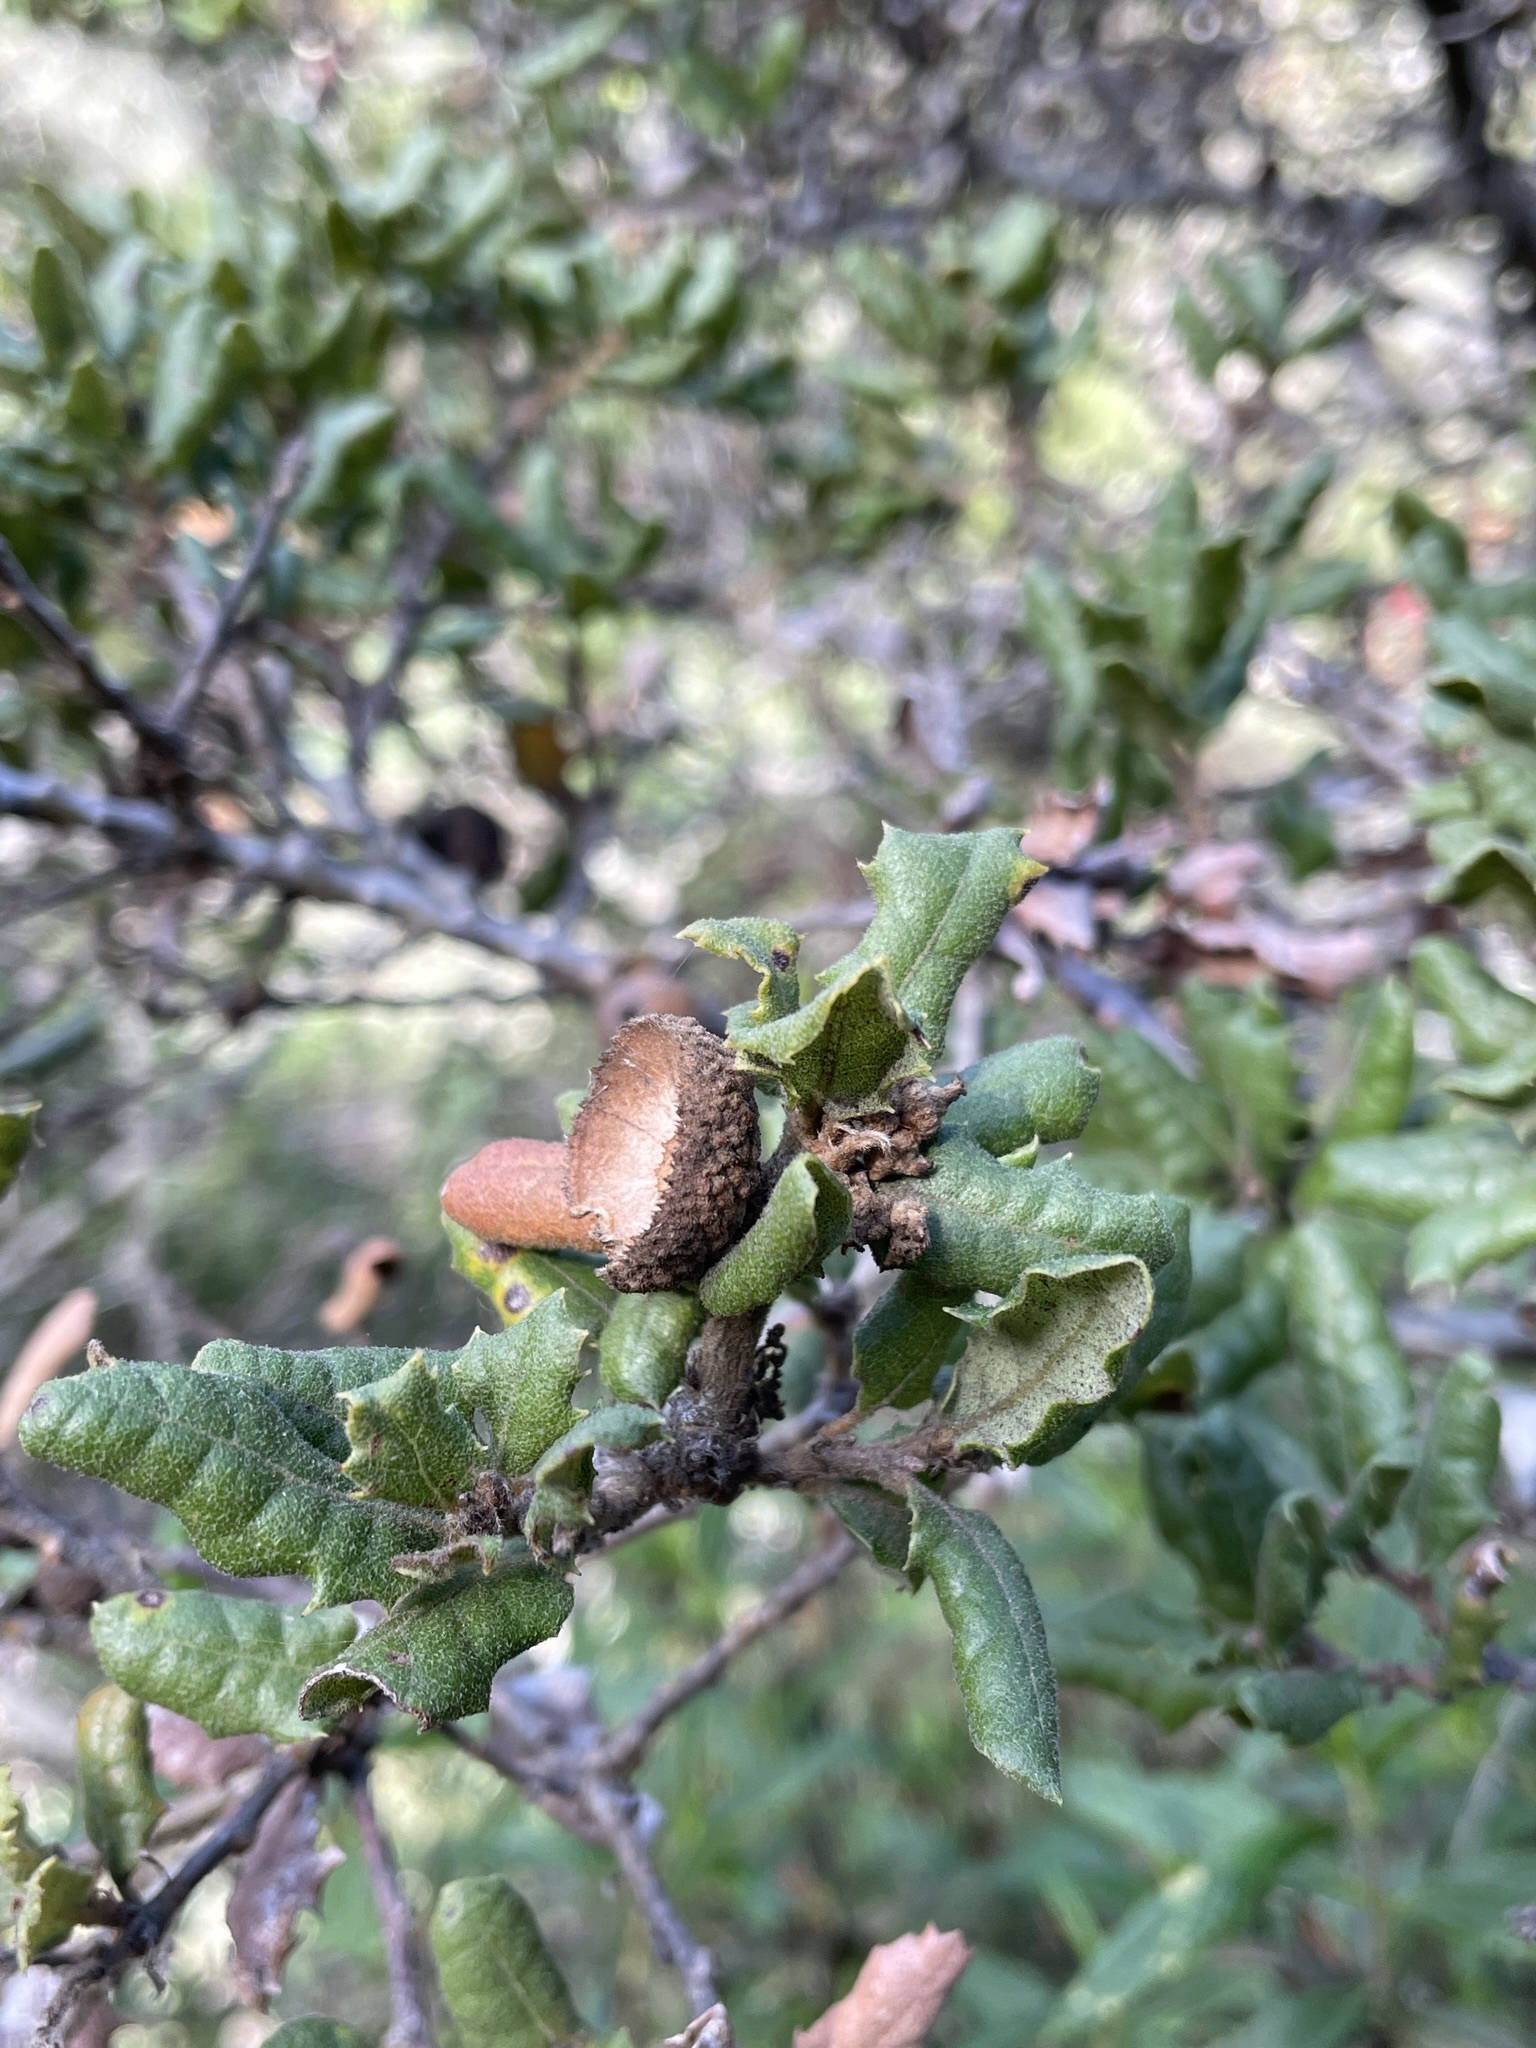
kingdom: Plantae
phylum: Tracheophyta
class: Magnoliopsida
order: Fagales
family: Fagaceae
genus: Quercus
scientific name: Quercus durata
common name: Leather oak
